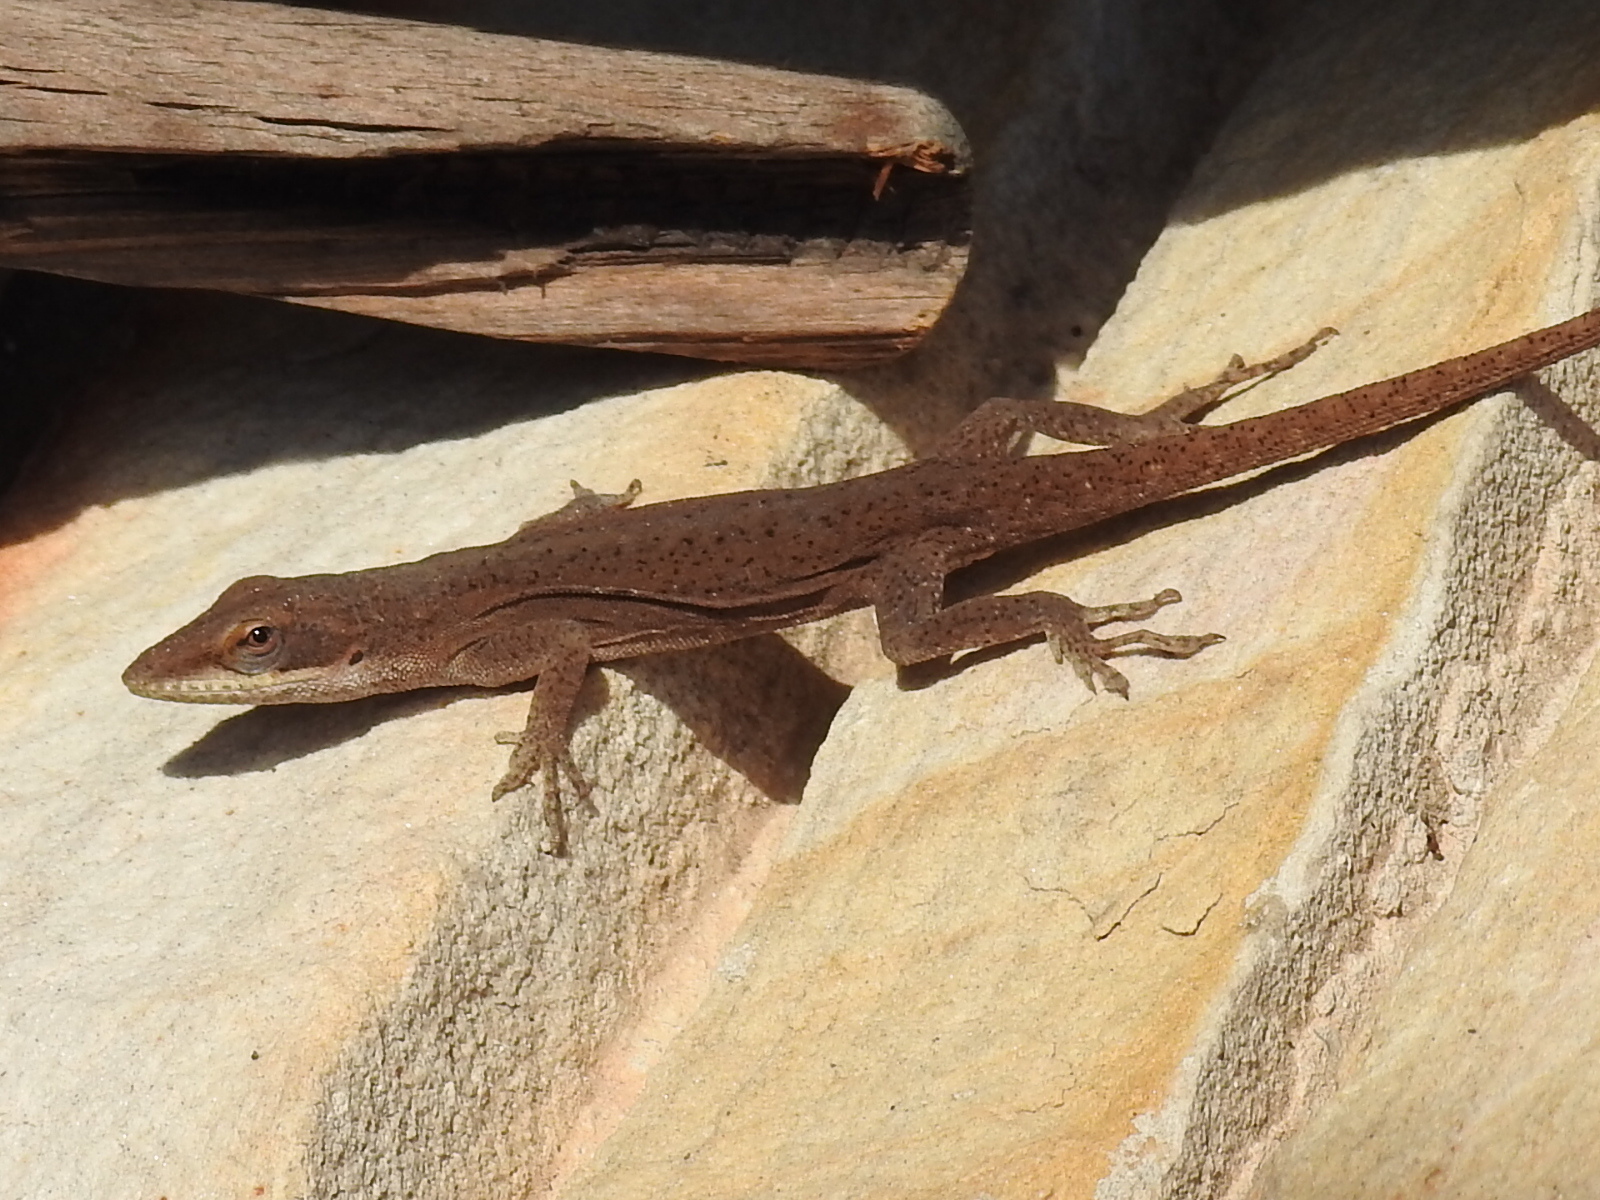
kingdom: Animalia
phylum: Chordata
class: Squamata
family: Dactyloidae
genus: Anolis
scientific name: Anolis carolinensis
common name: Green anole
